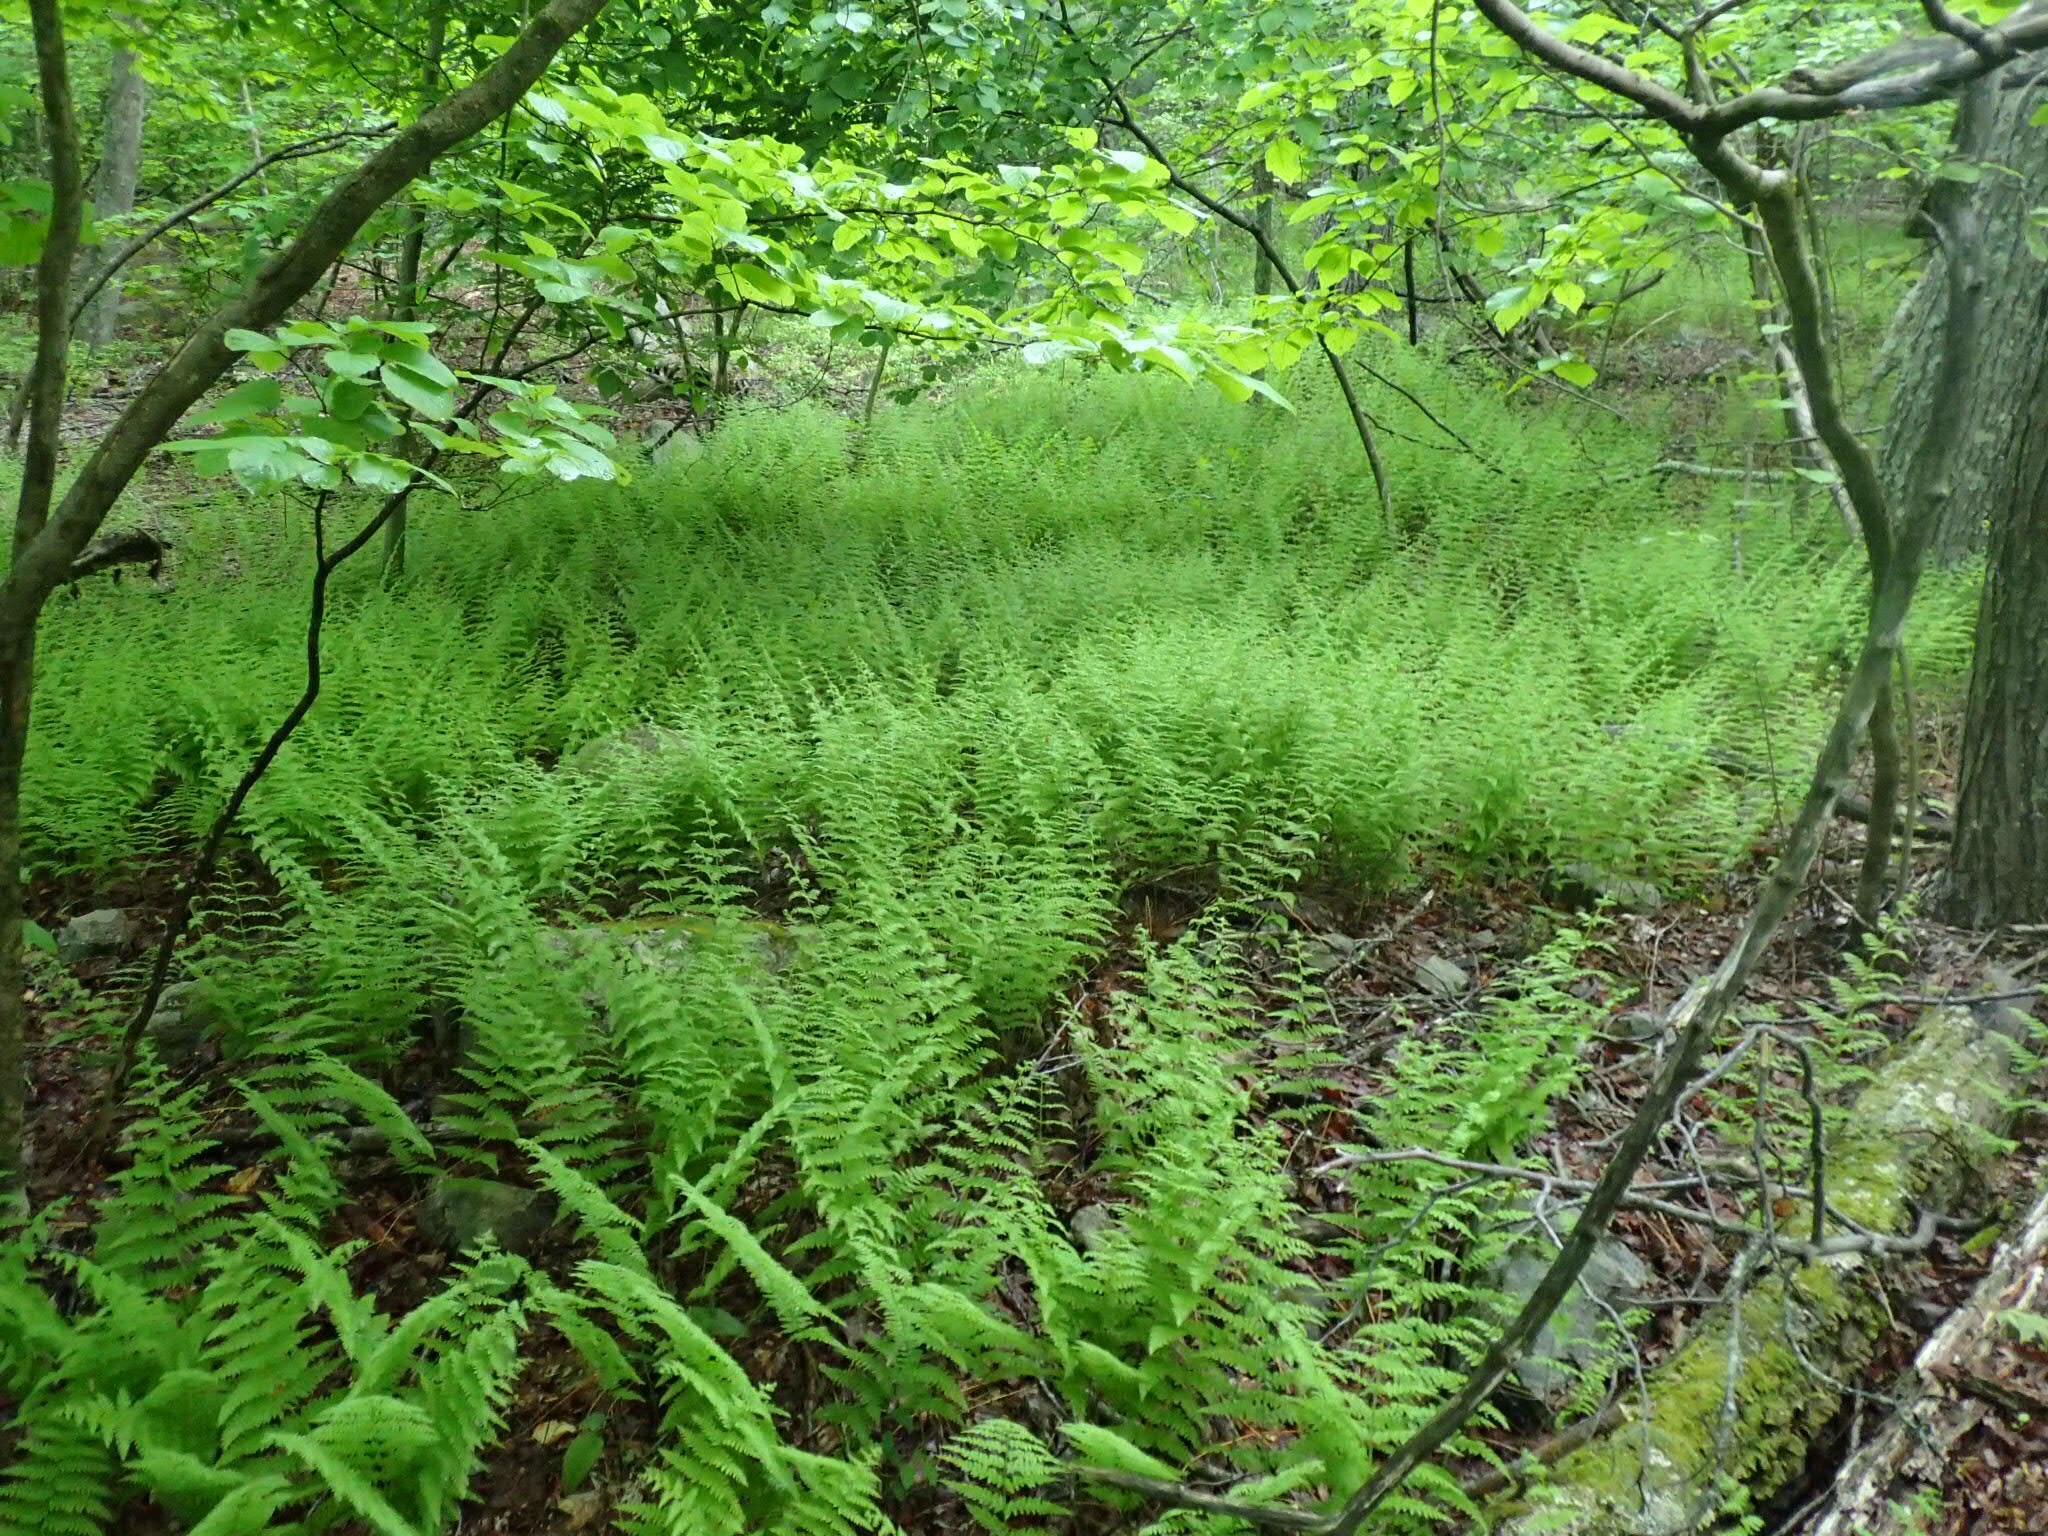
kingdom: Plantae
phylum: Tracheophyta
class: Polypodiopsida
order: Polypodiales
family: Dennstaedtiaceae
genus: Sitobolium
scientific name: Sitobolium punctilobum
